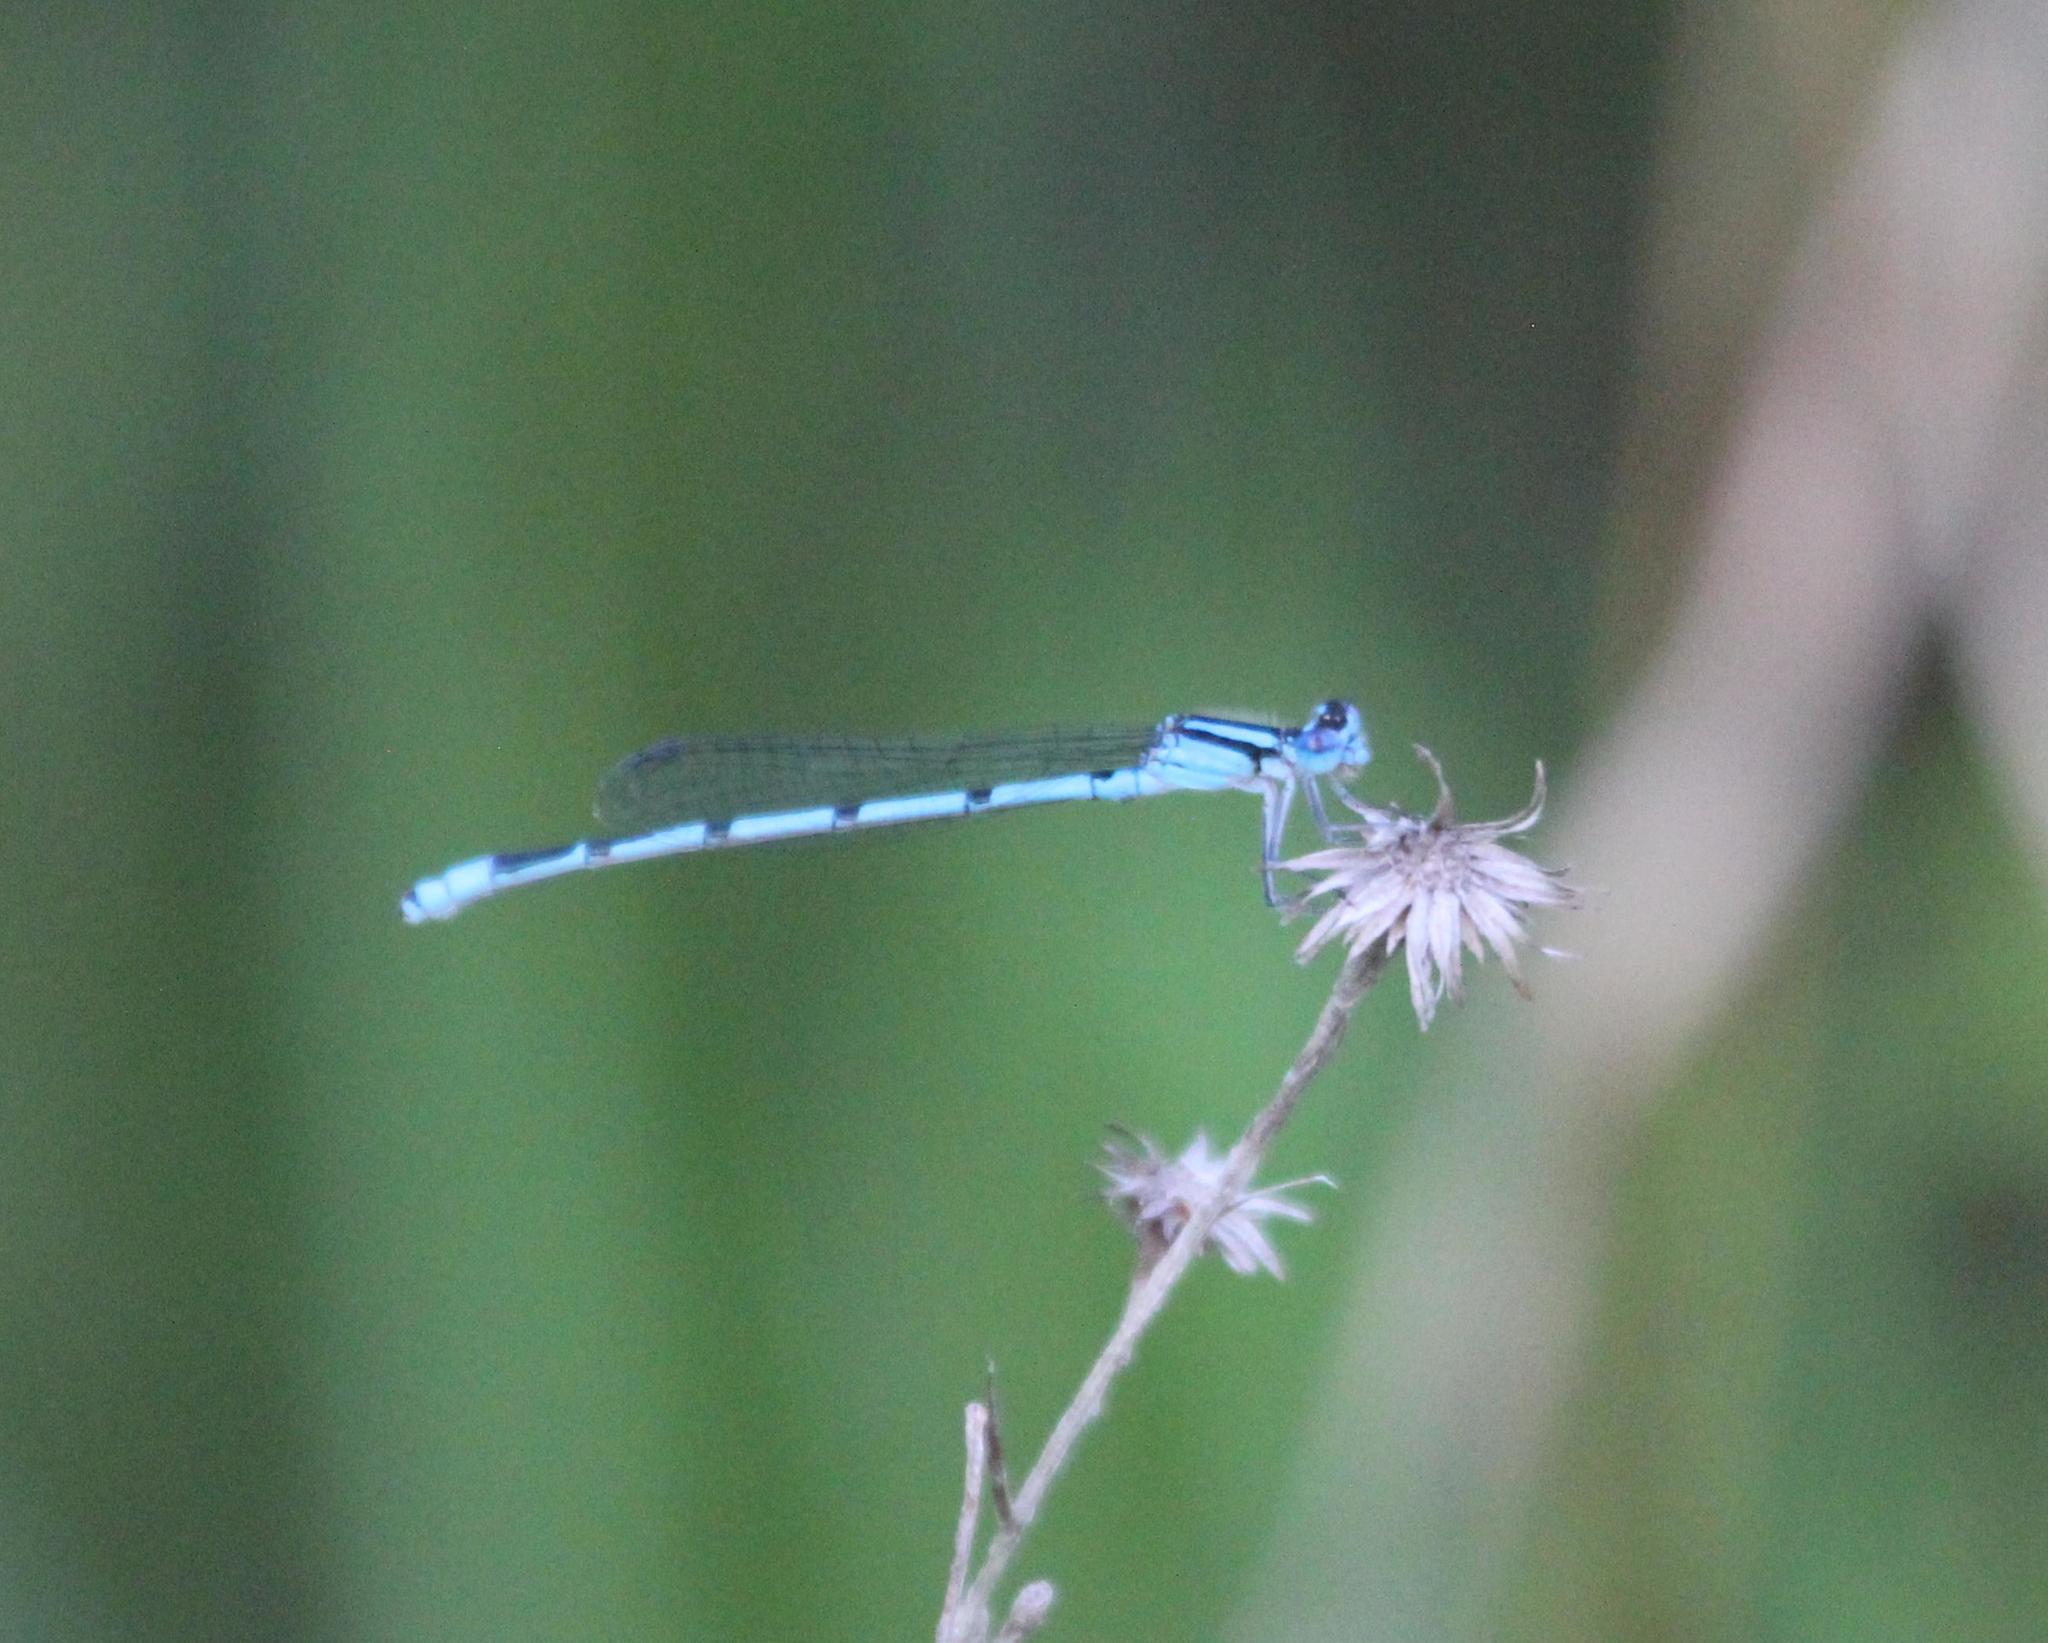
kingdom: Animalia
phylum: Arthropoda
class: Insecta
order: Odonata
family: Coenagrionidae
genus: Enallagma
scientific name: Enallagma civile
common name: Damselfly
